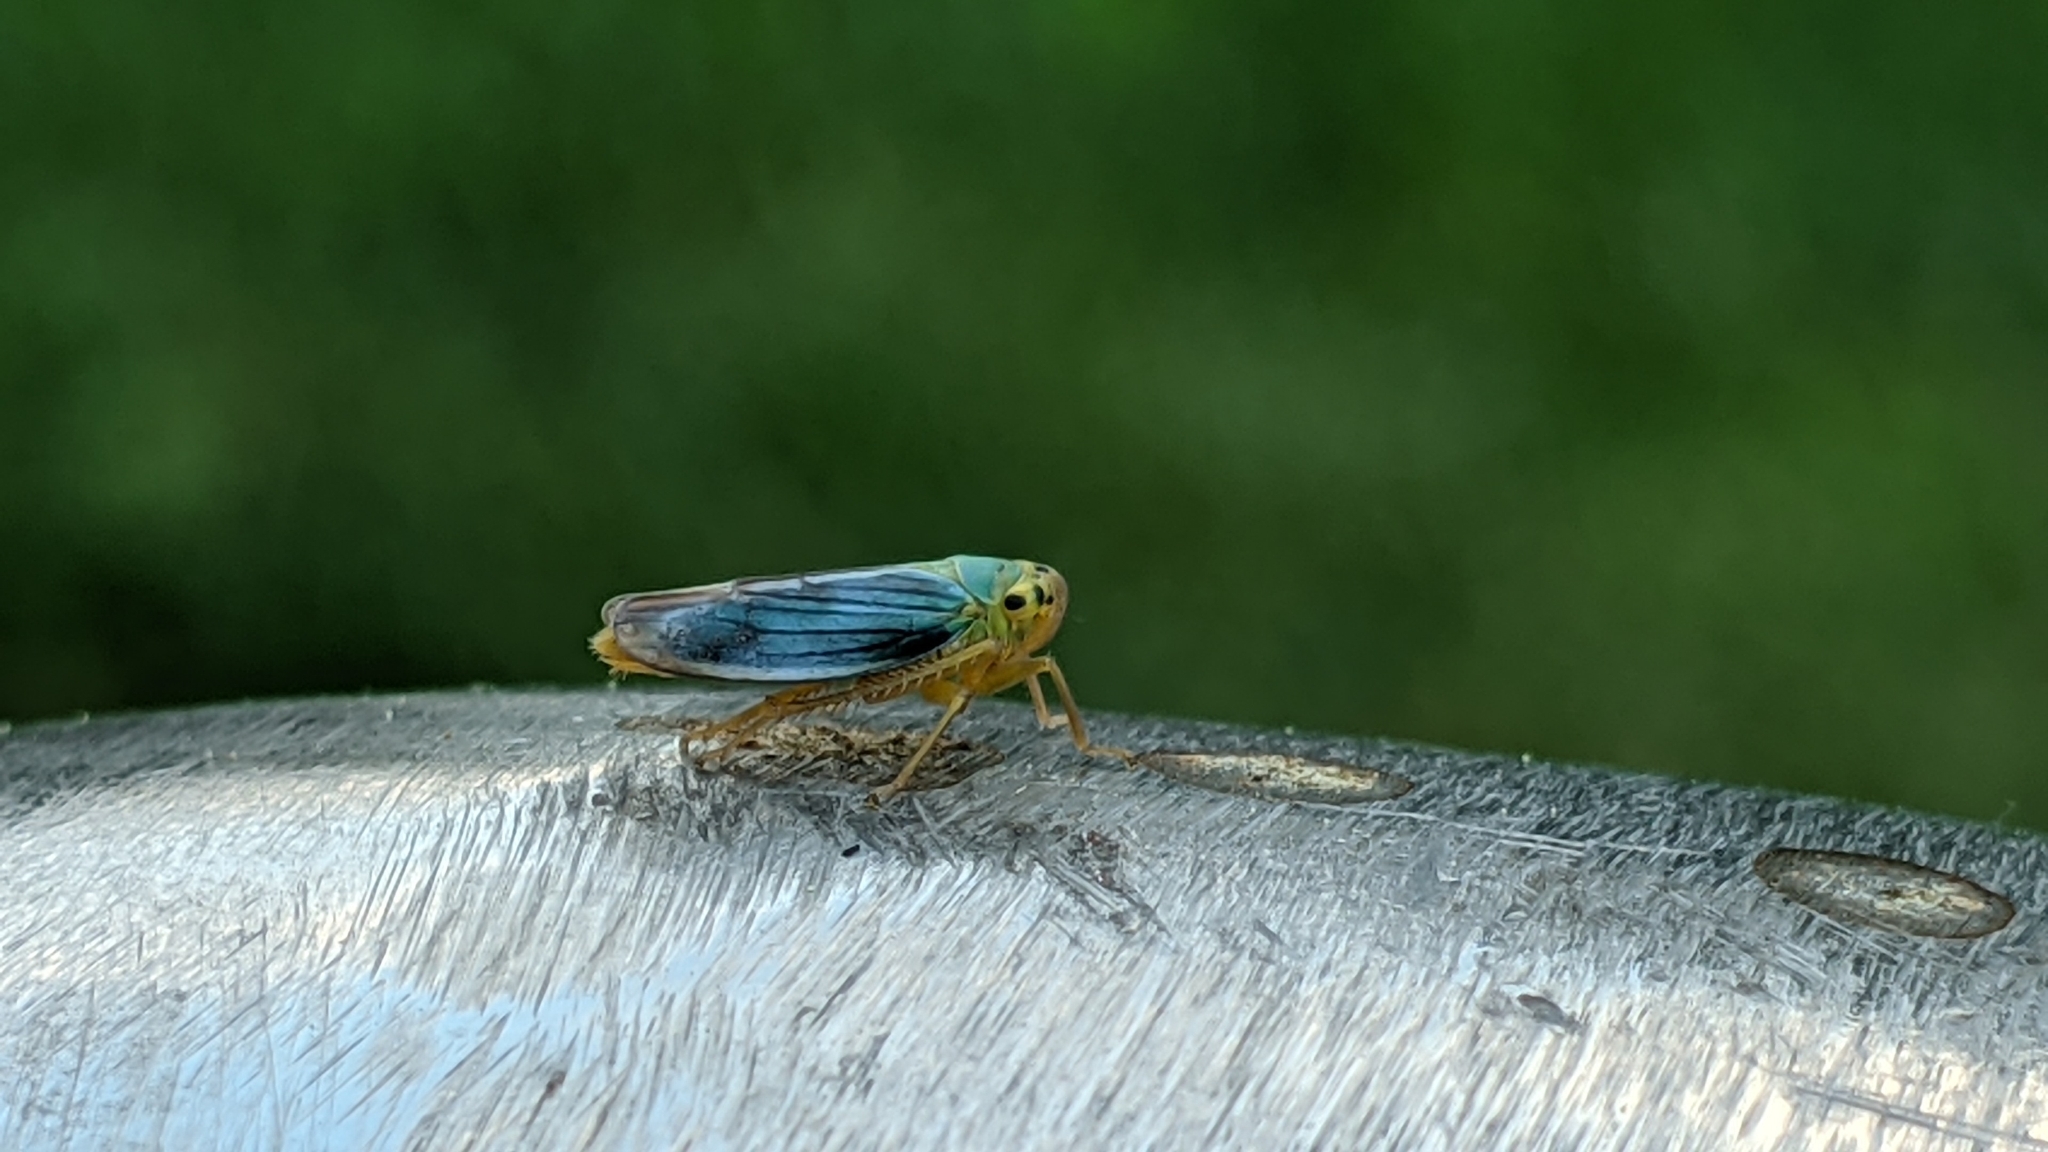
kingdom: Animalia
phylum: Arthropoda
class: Insecta
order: Hemiptera
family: Cicadellidae
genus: Cicadella
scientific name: Cicadella viridis
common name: Leafhopper
